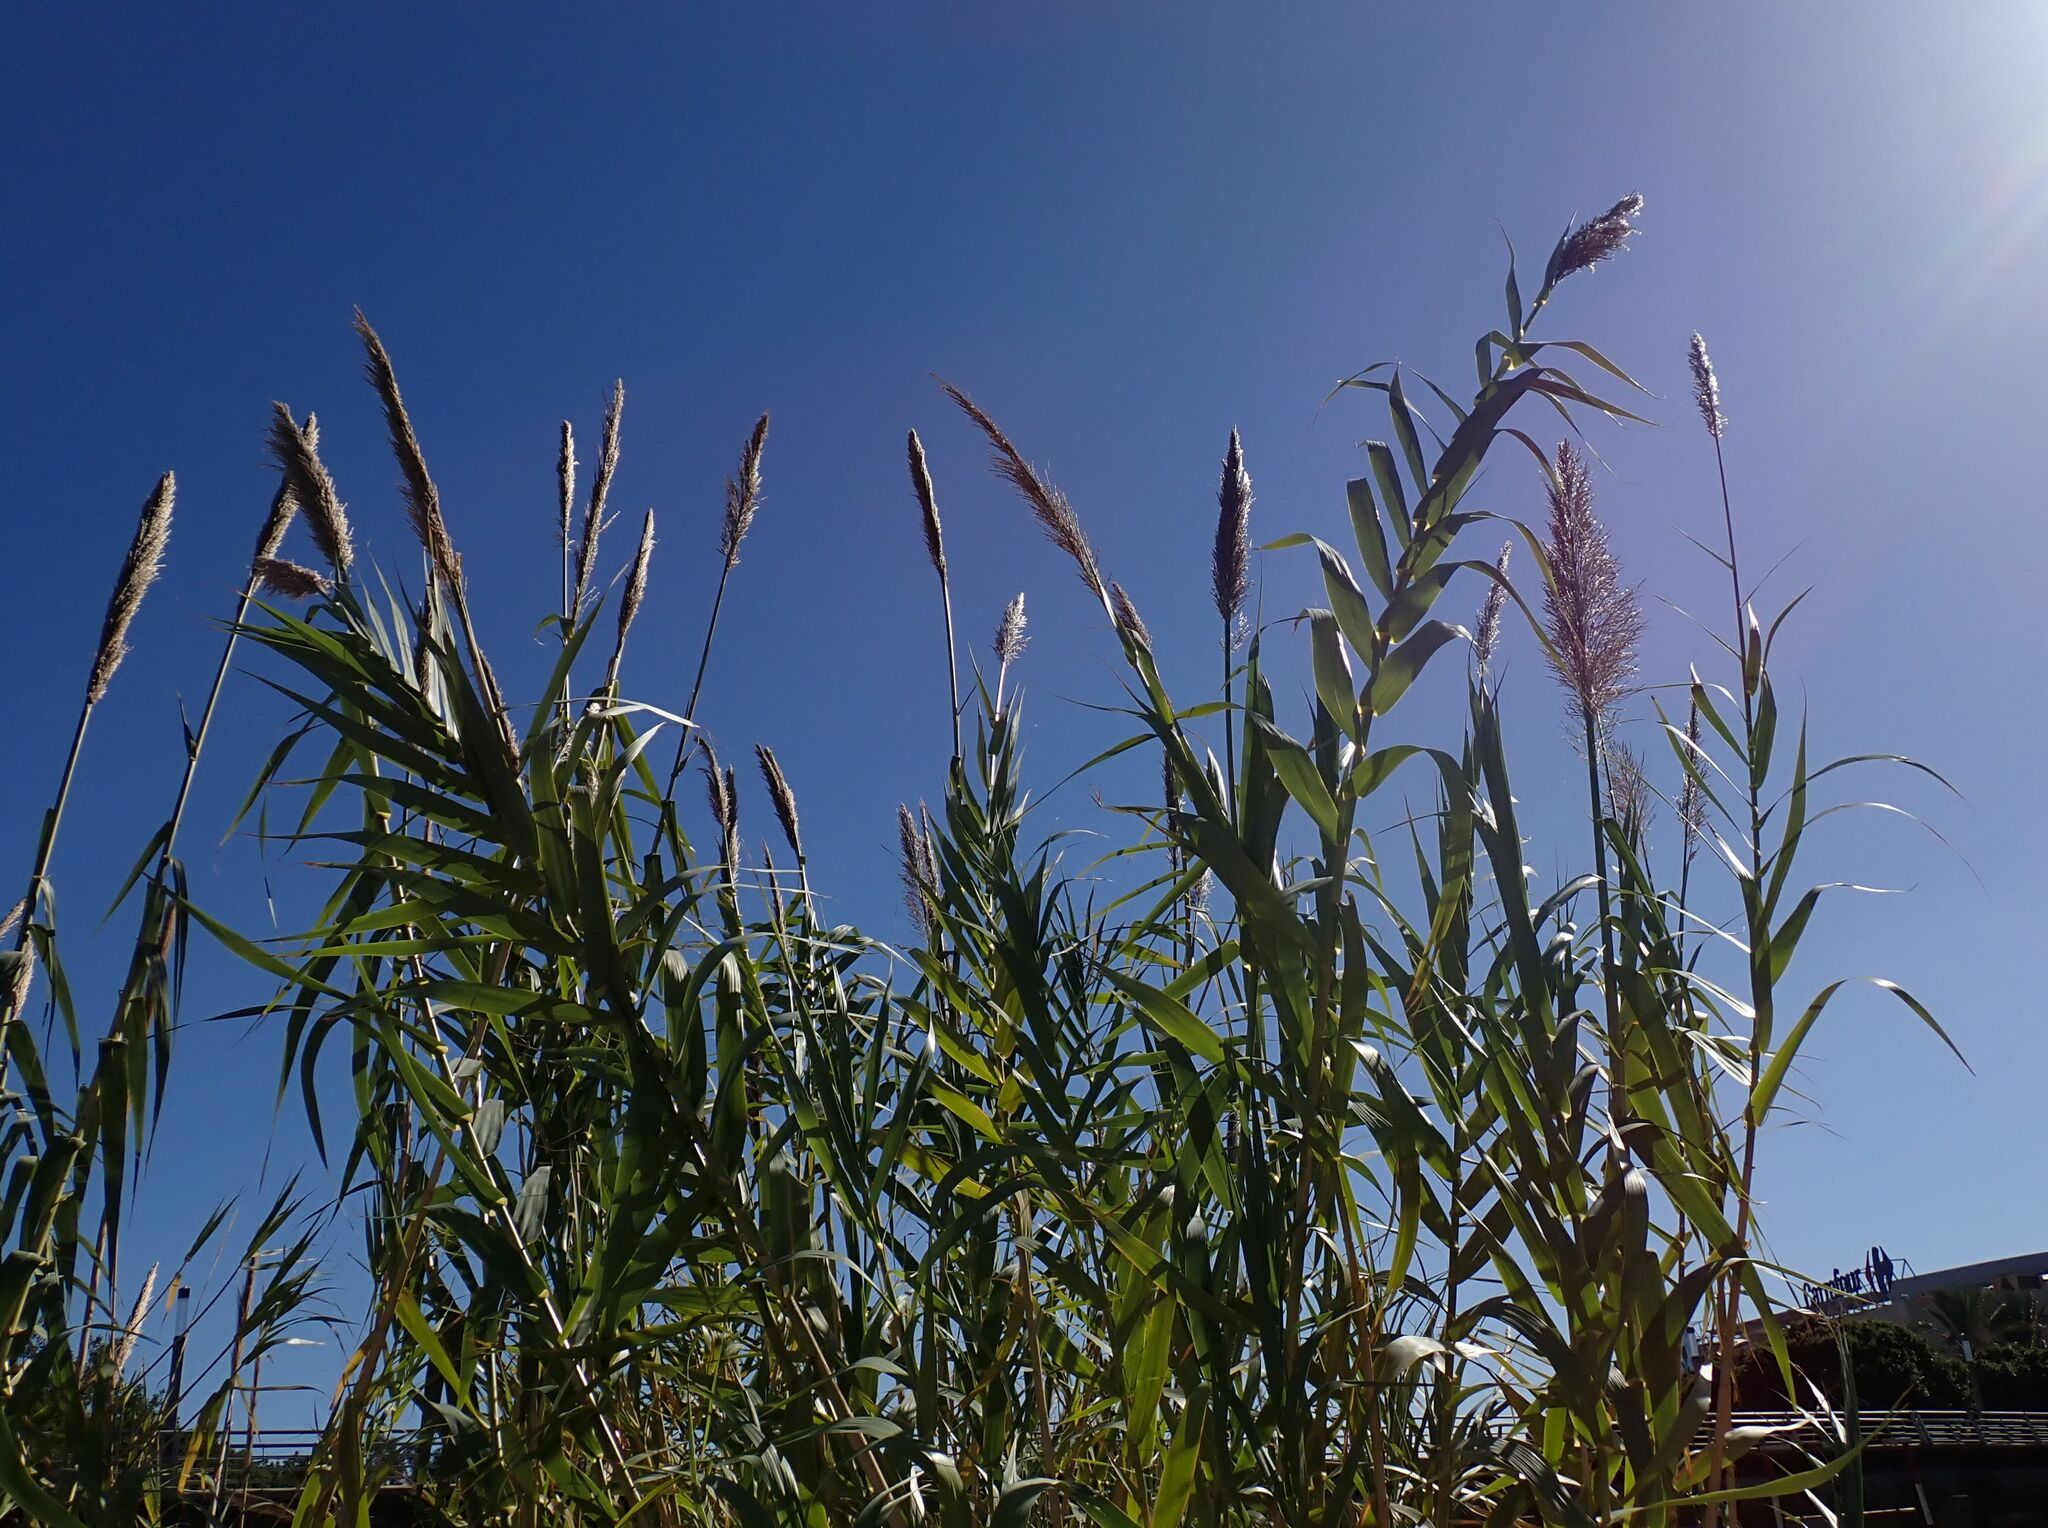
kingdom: Plantae
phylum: Tracheophyta
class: Liliopsida
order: Poales
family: Poaceae
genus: Arundo
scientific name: Arundo donax
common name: Giant reed
